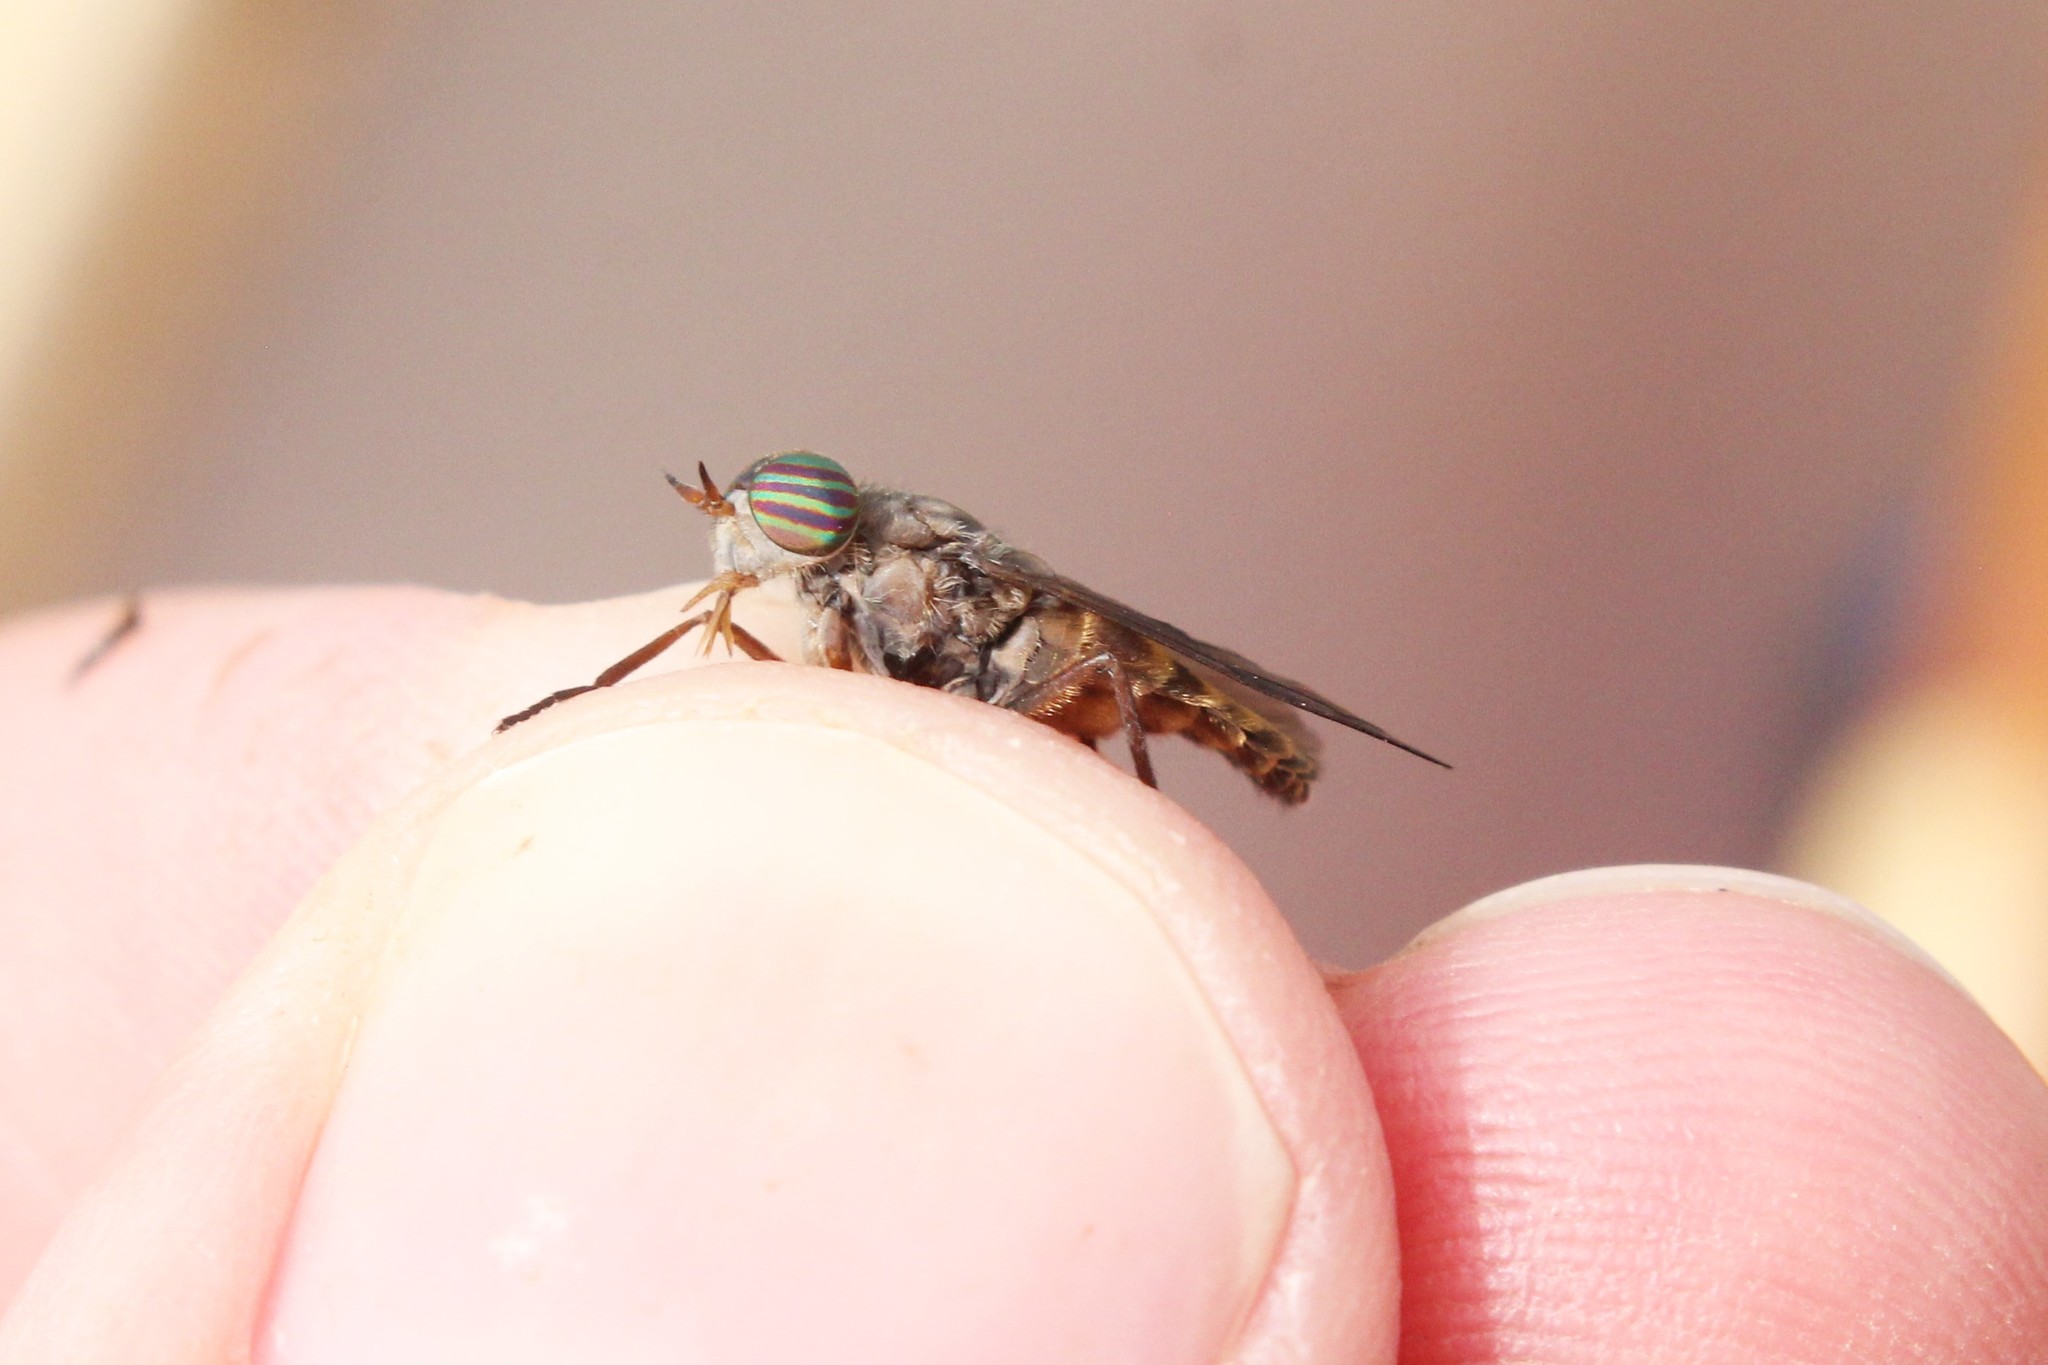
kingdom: Animalia
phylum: Arthropoda
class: Insecta
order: Diptera
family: Tabanidae
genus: Hybomitra
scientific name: Hybomitra minuscula
